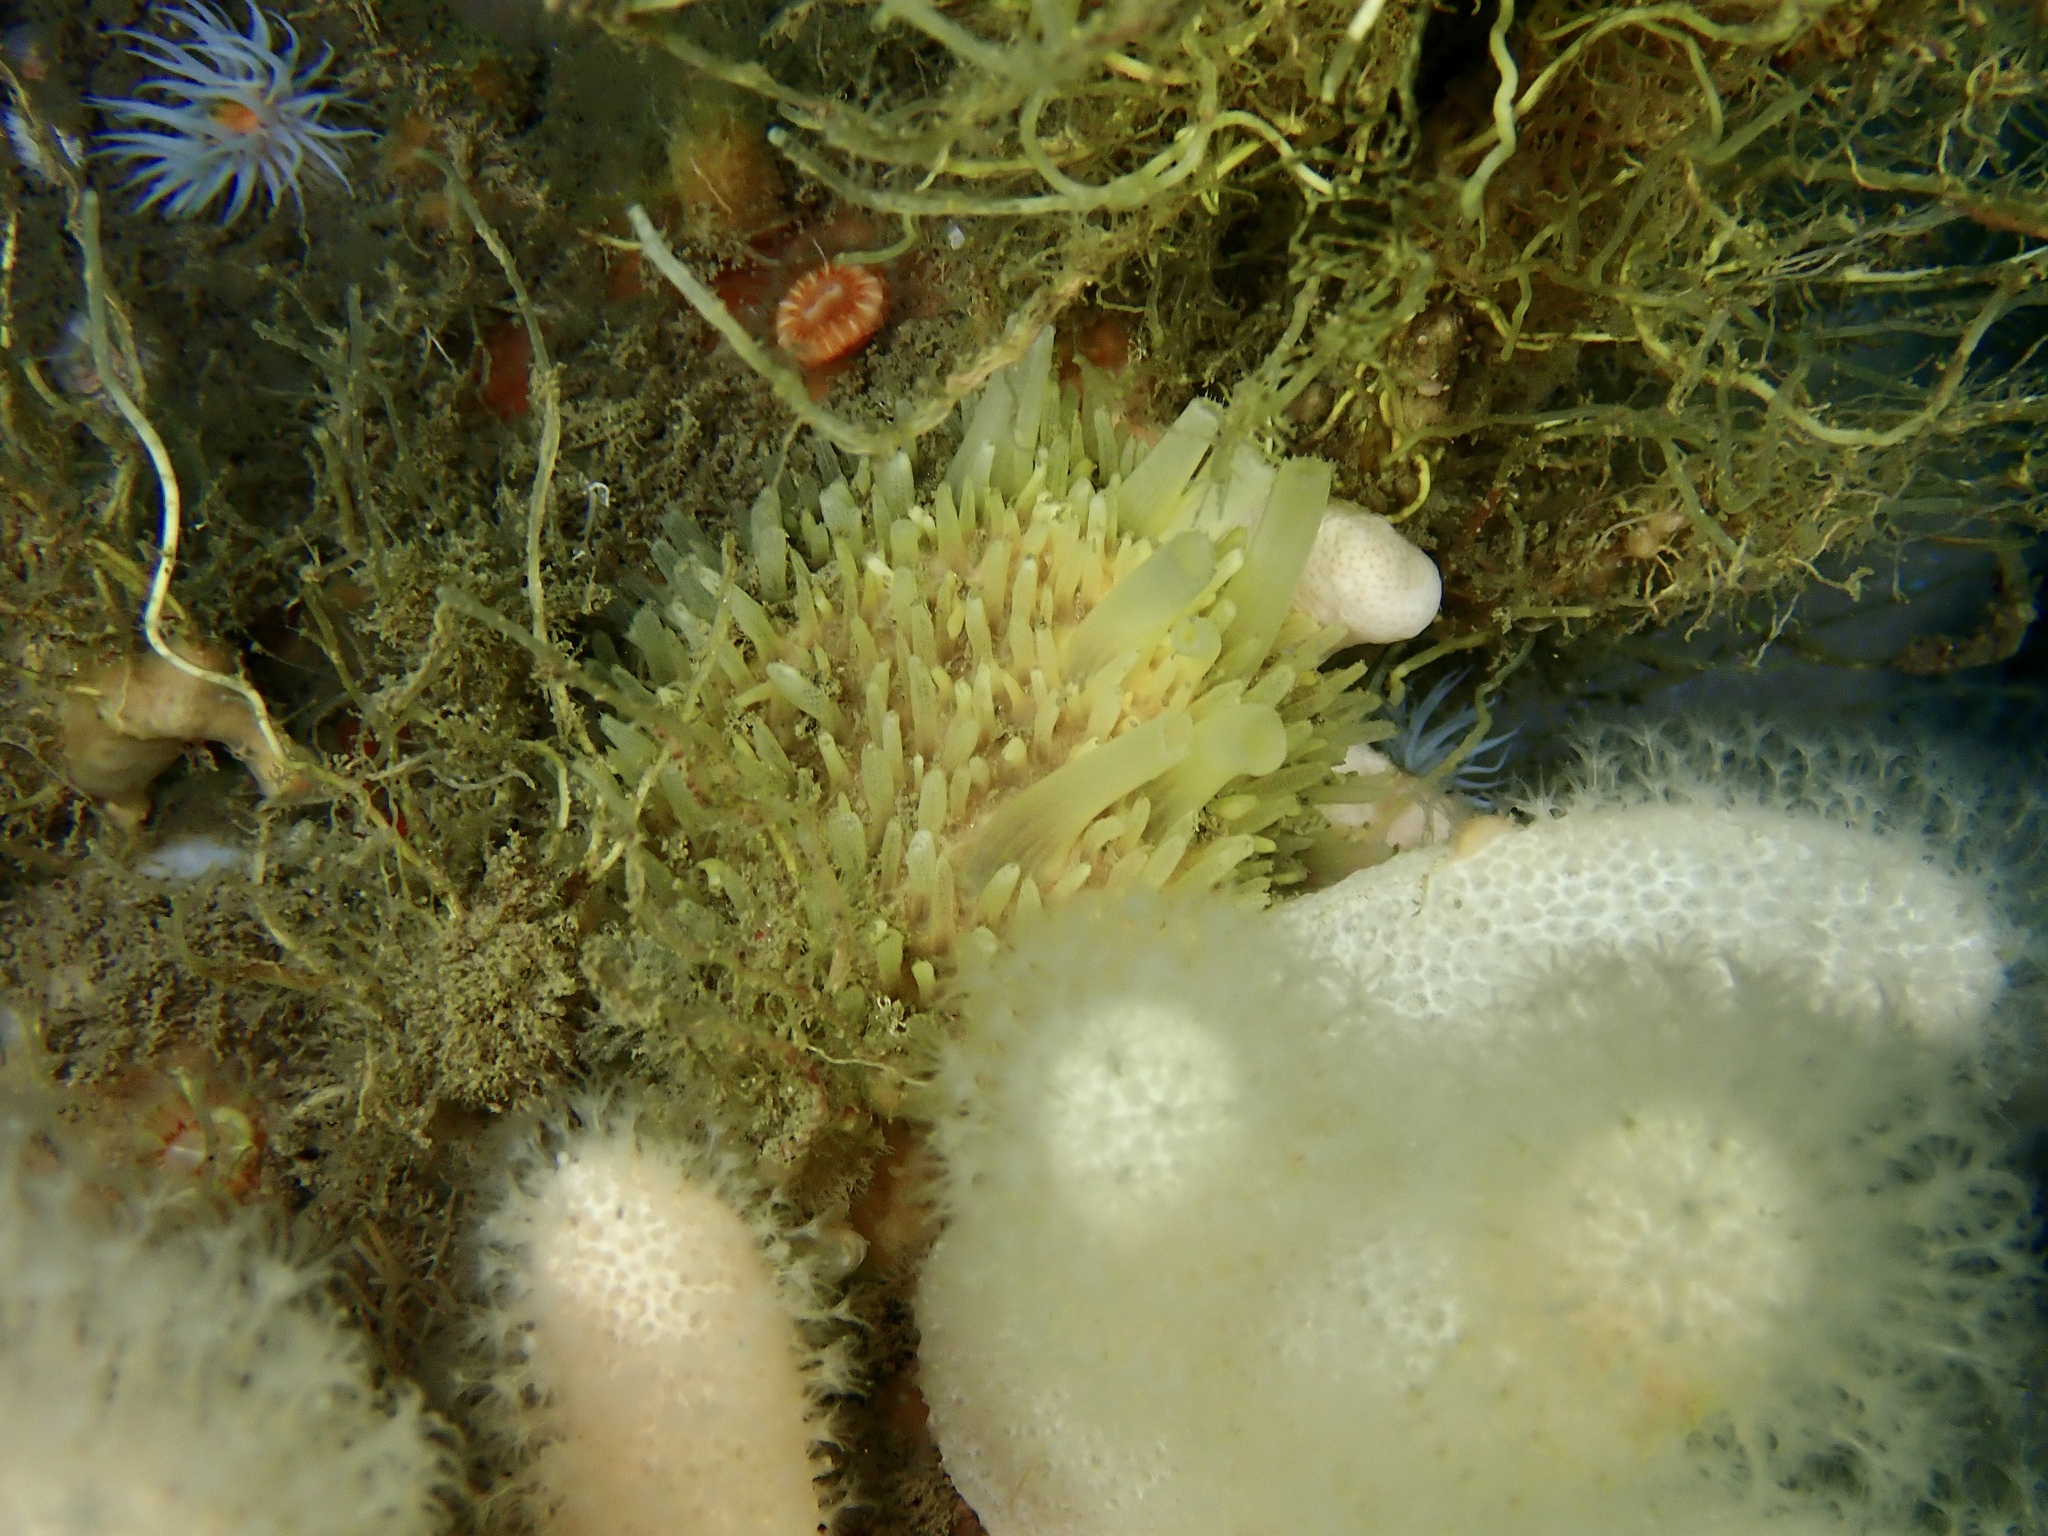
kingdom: Animalia
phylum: Porifera
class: Demospongiae
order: Polymastiida
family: Polymastiidae
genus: Polymastia
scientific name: Polymastia penicillus
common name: Chimney sponge
